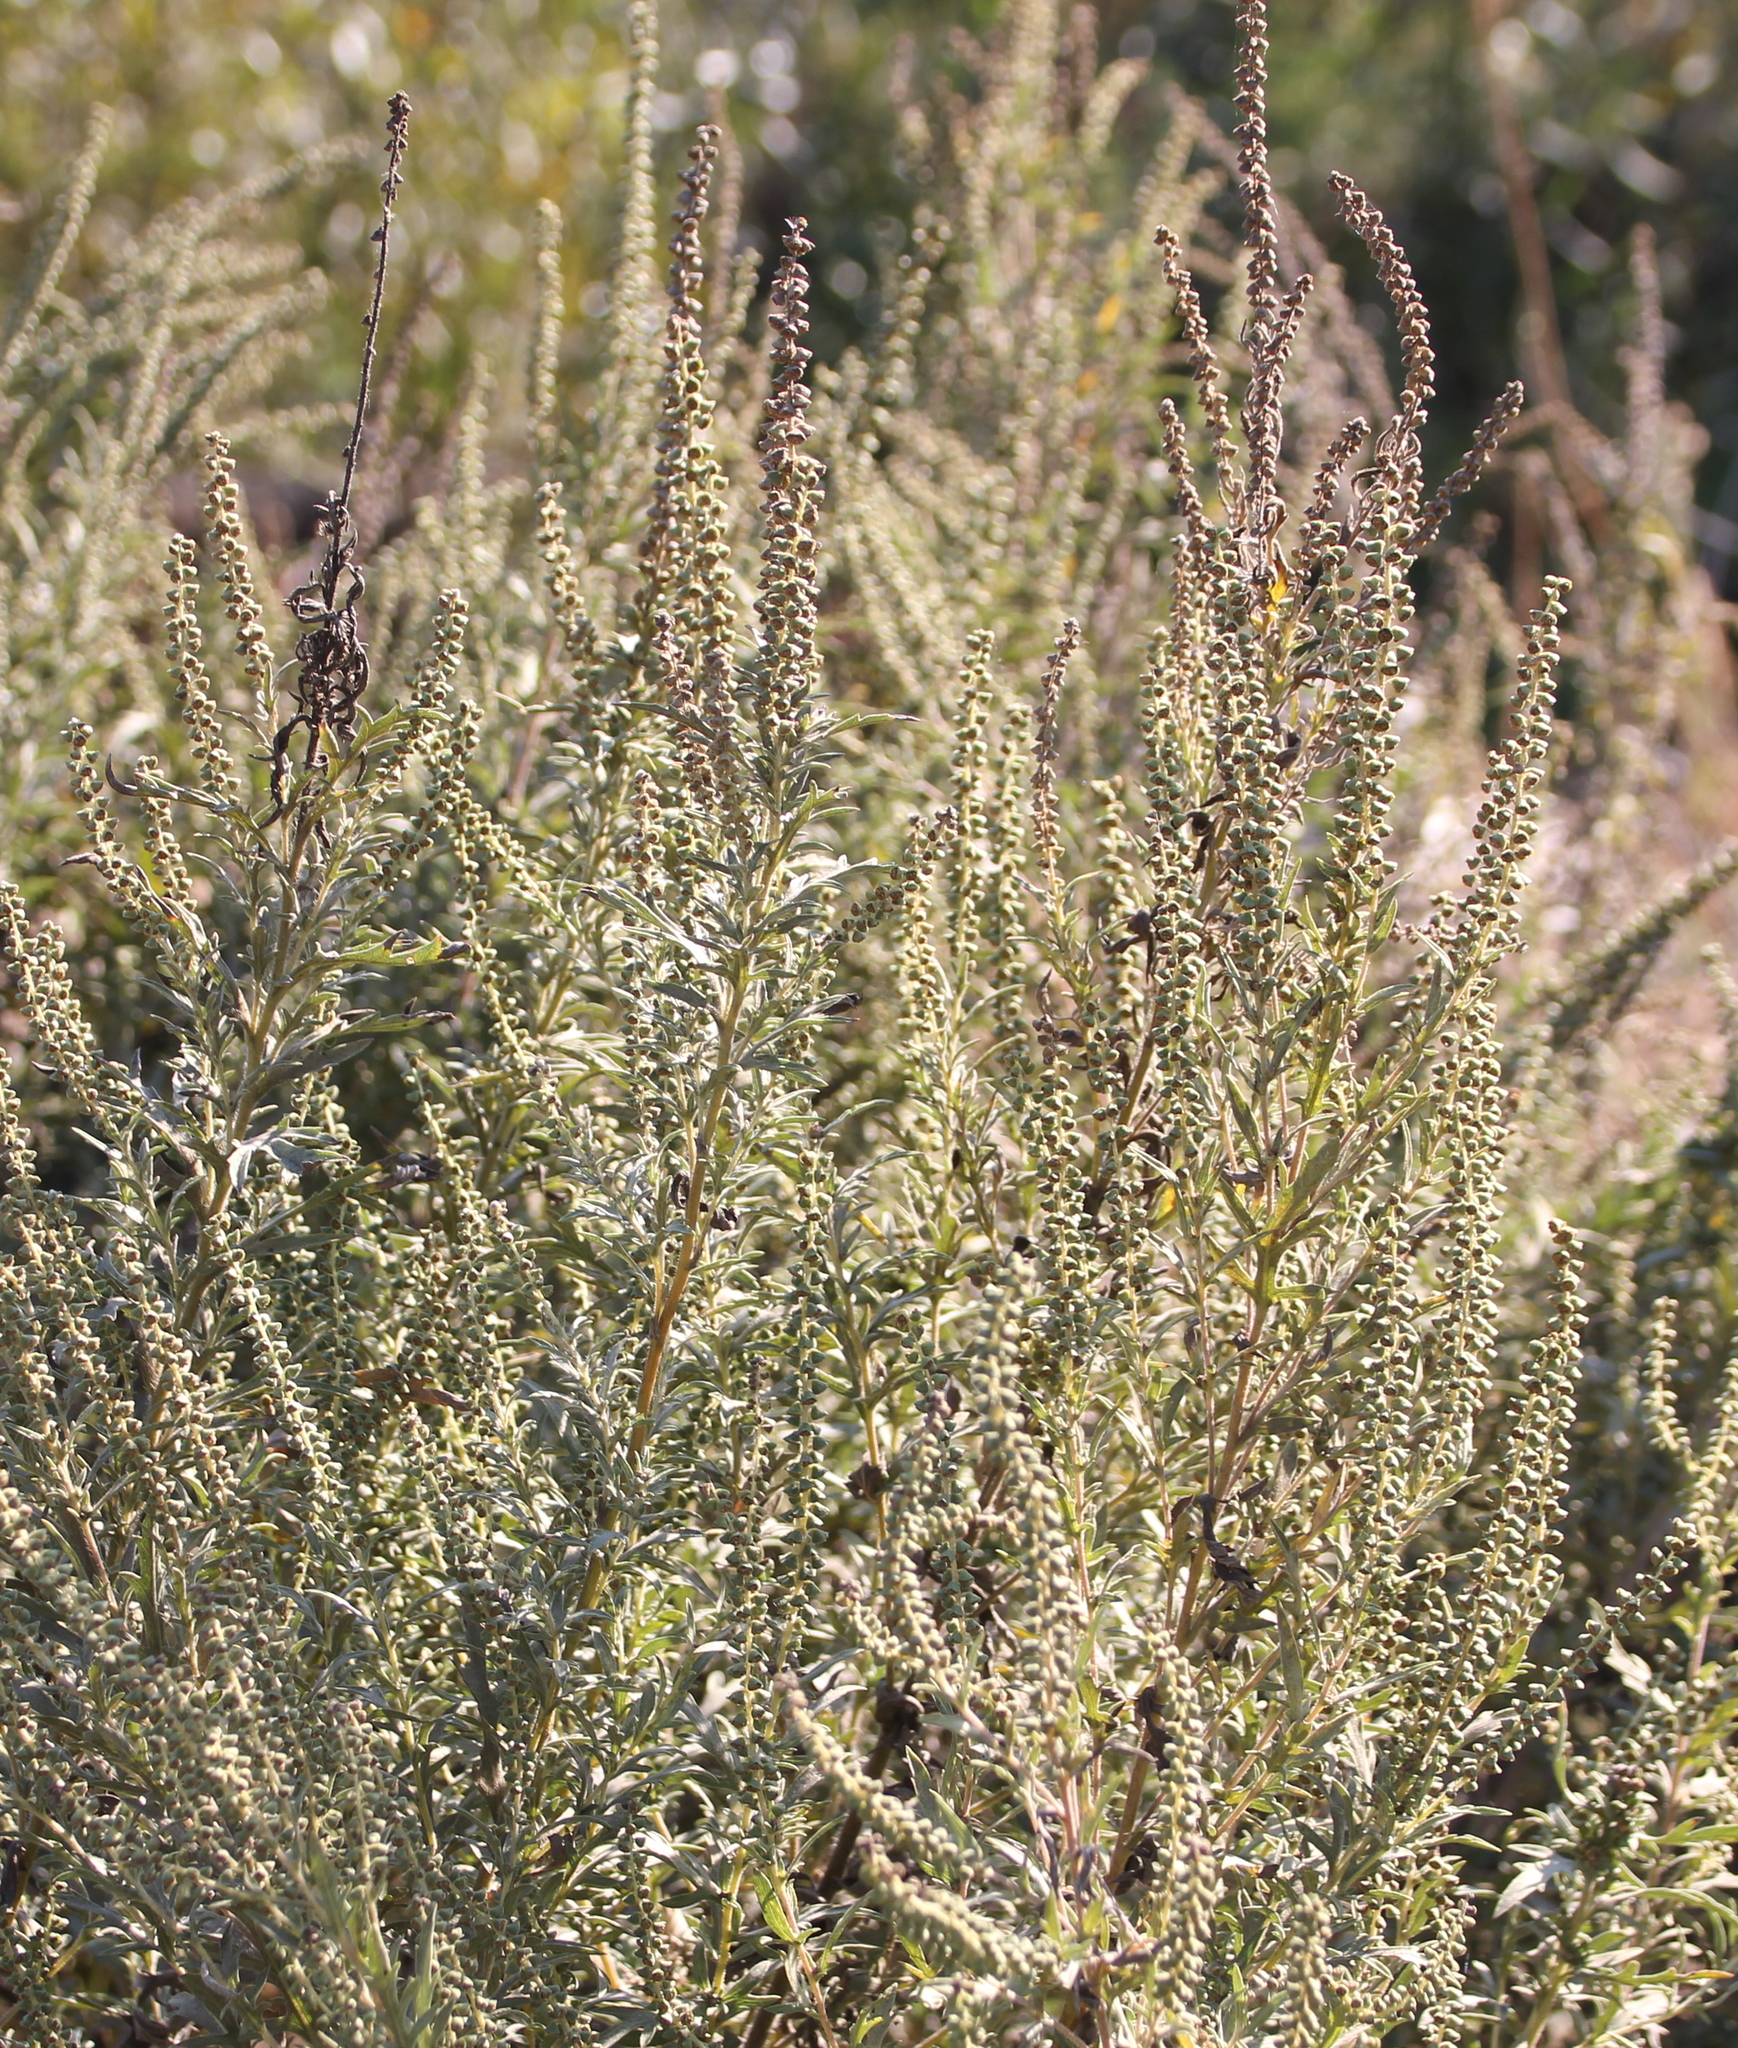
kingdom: Plantae
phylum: Tracheophyta
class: Magnoliopsida
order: Asterales
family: Asteraceae
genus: Ambrosia
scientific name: Ambrosia psilostachya
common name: Perennial ragweed
